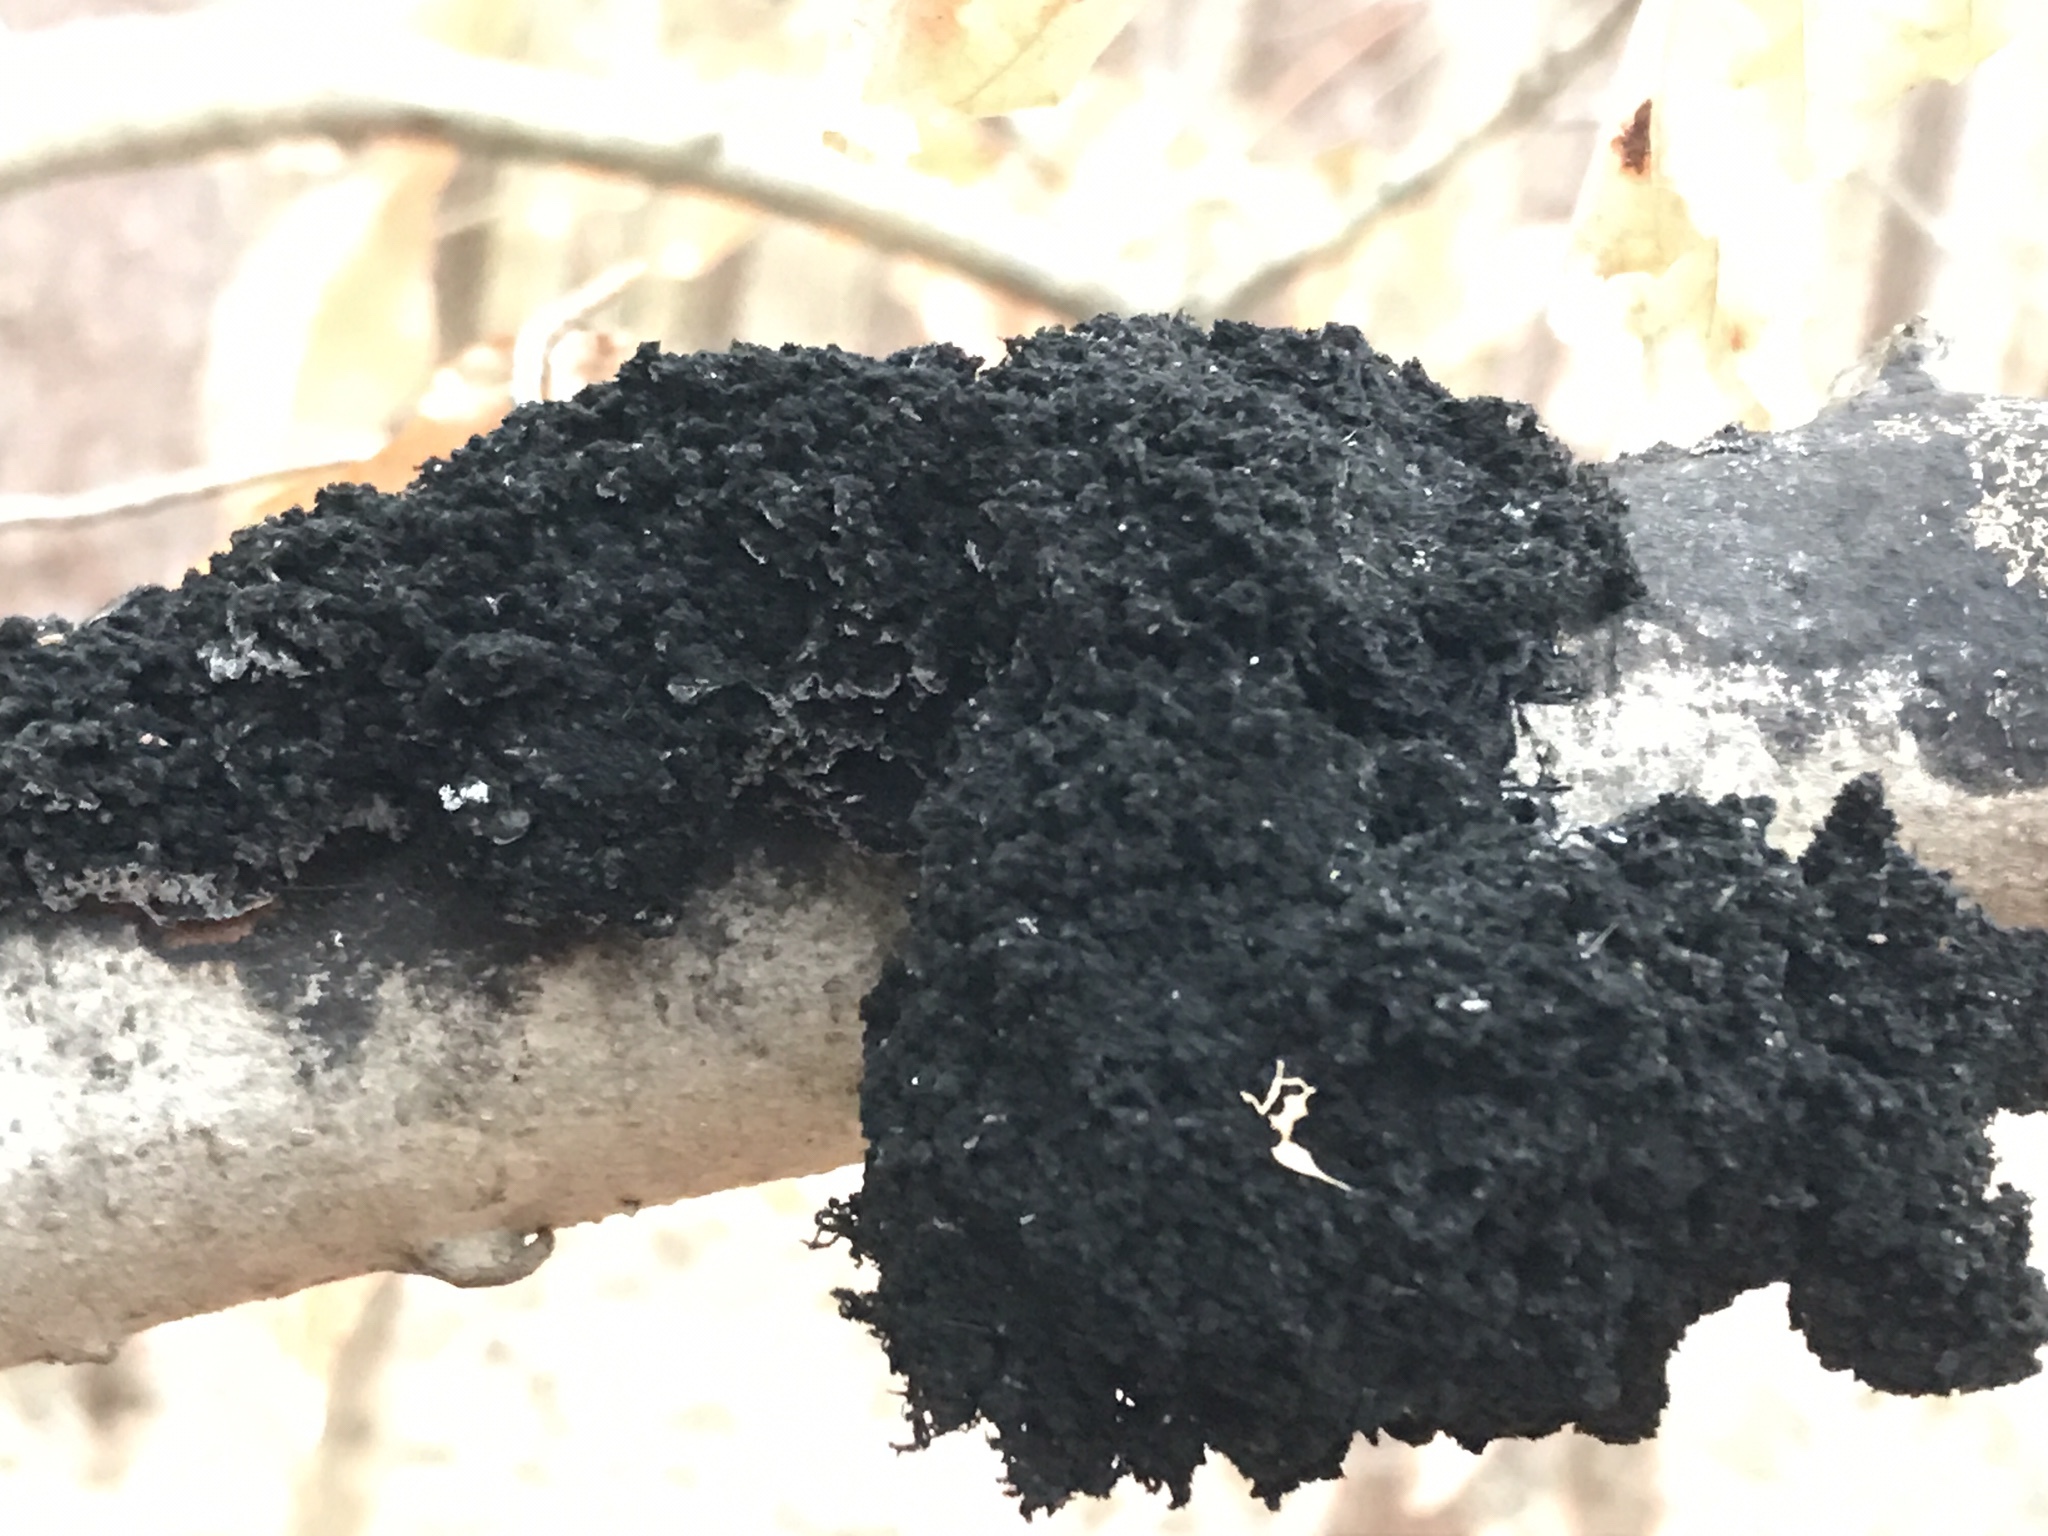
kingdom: Fungi
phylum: Ascomycota
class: Dothideomycetes
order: Capnodiales
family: Capnodiaceae
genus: Scorias
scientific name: Scorias spongiosa
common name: Black sooty mold
